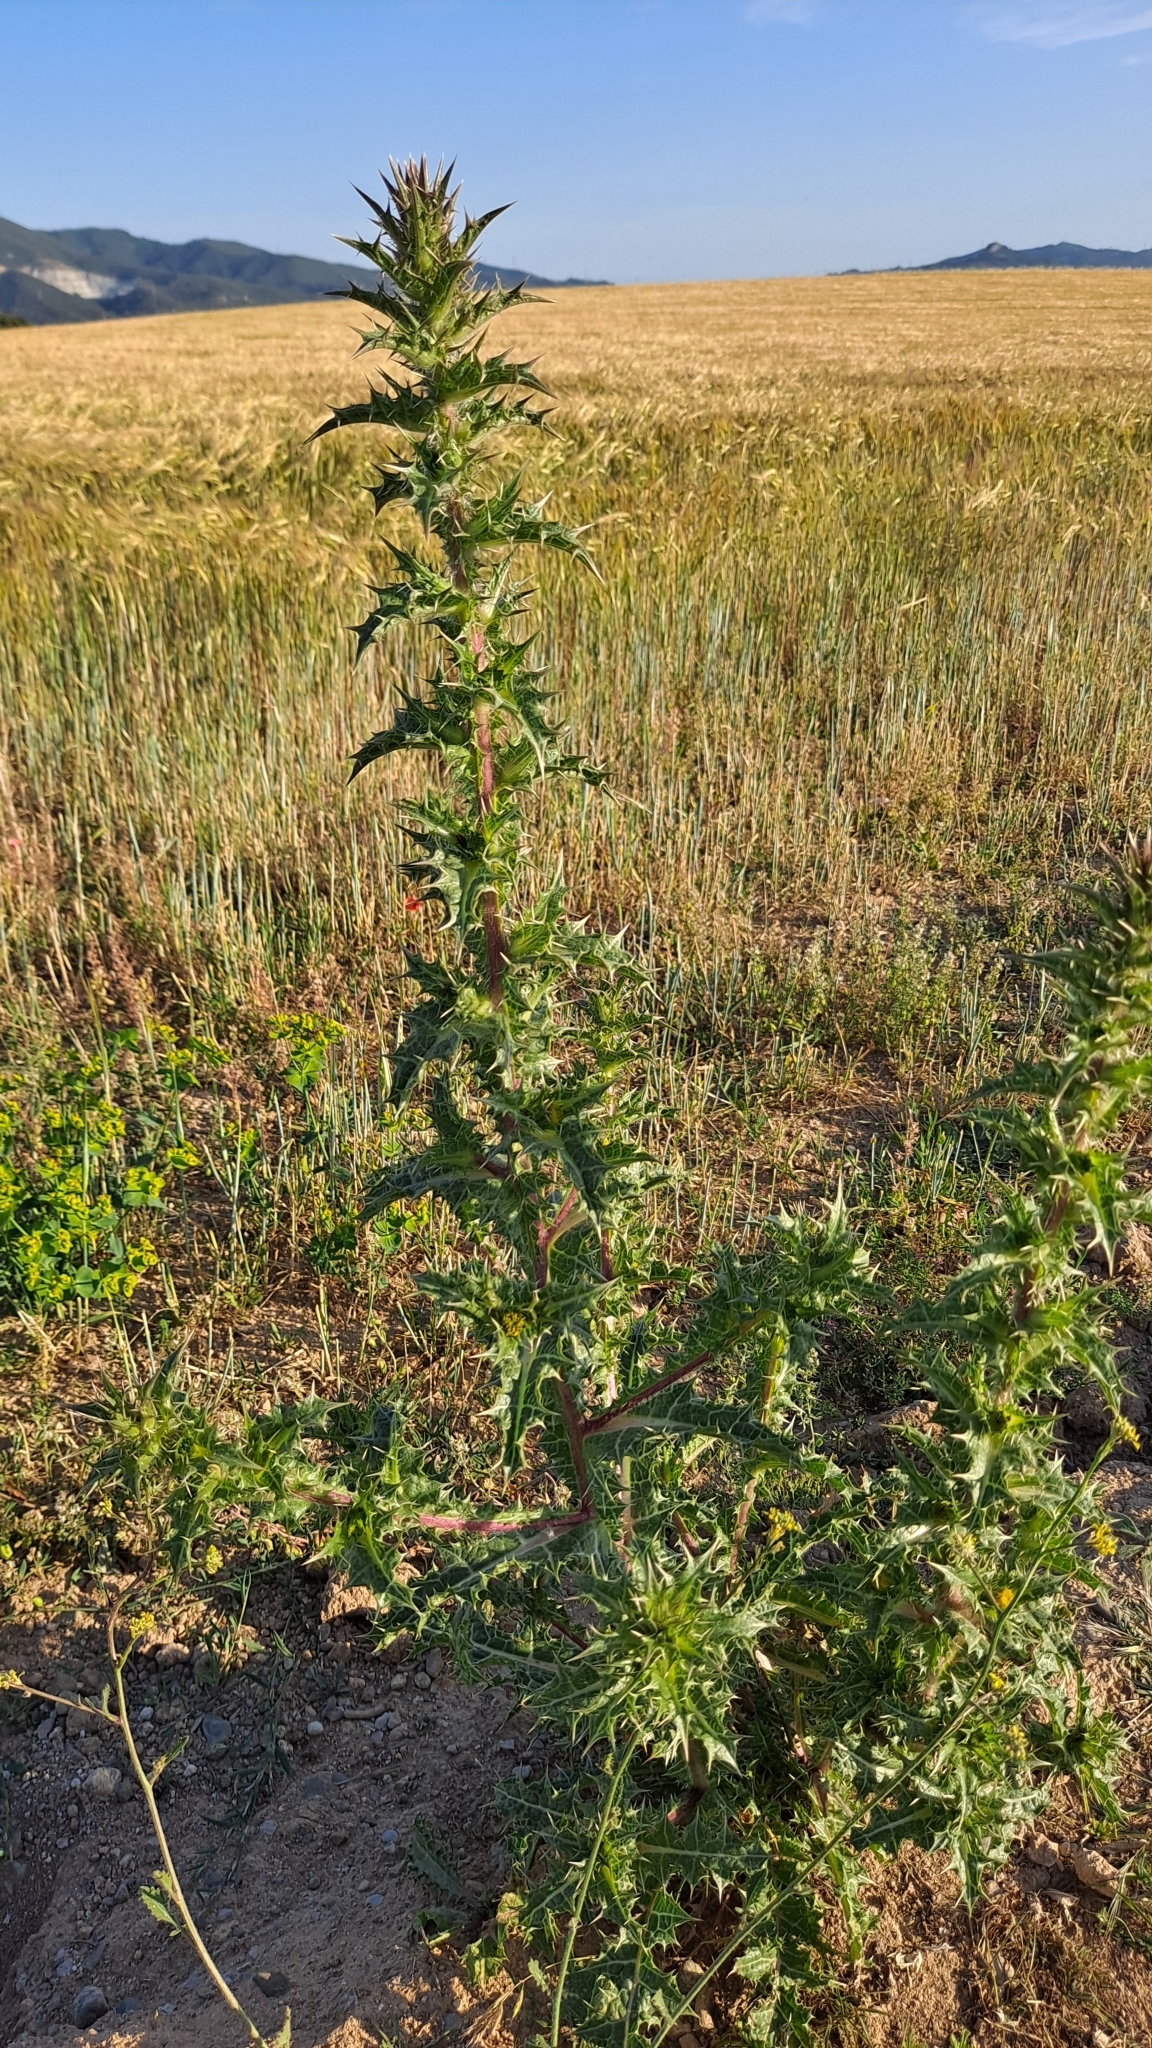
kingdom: Plantae
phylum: Tracheophyta
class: Magnoliopsida
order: Asterales
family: Asteraceae
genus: Scolymus
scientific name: Scolymus hispanicus
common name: Golden thistle
